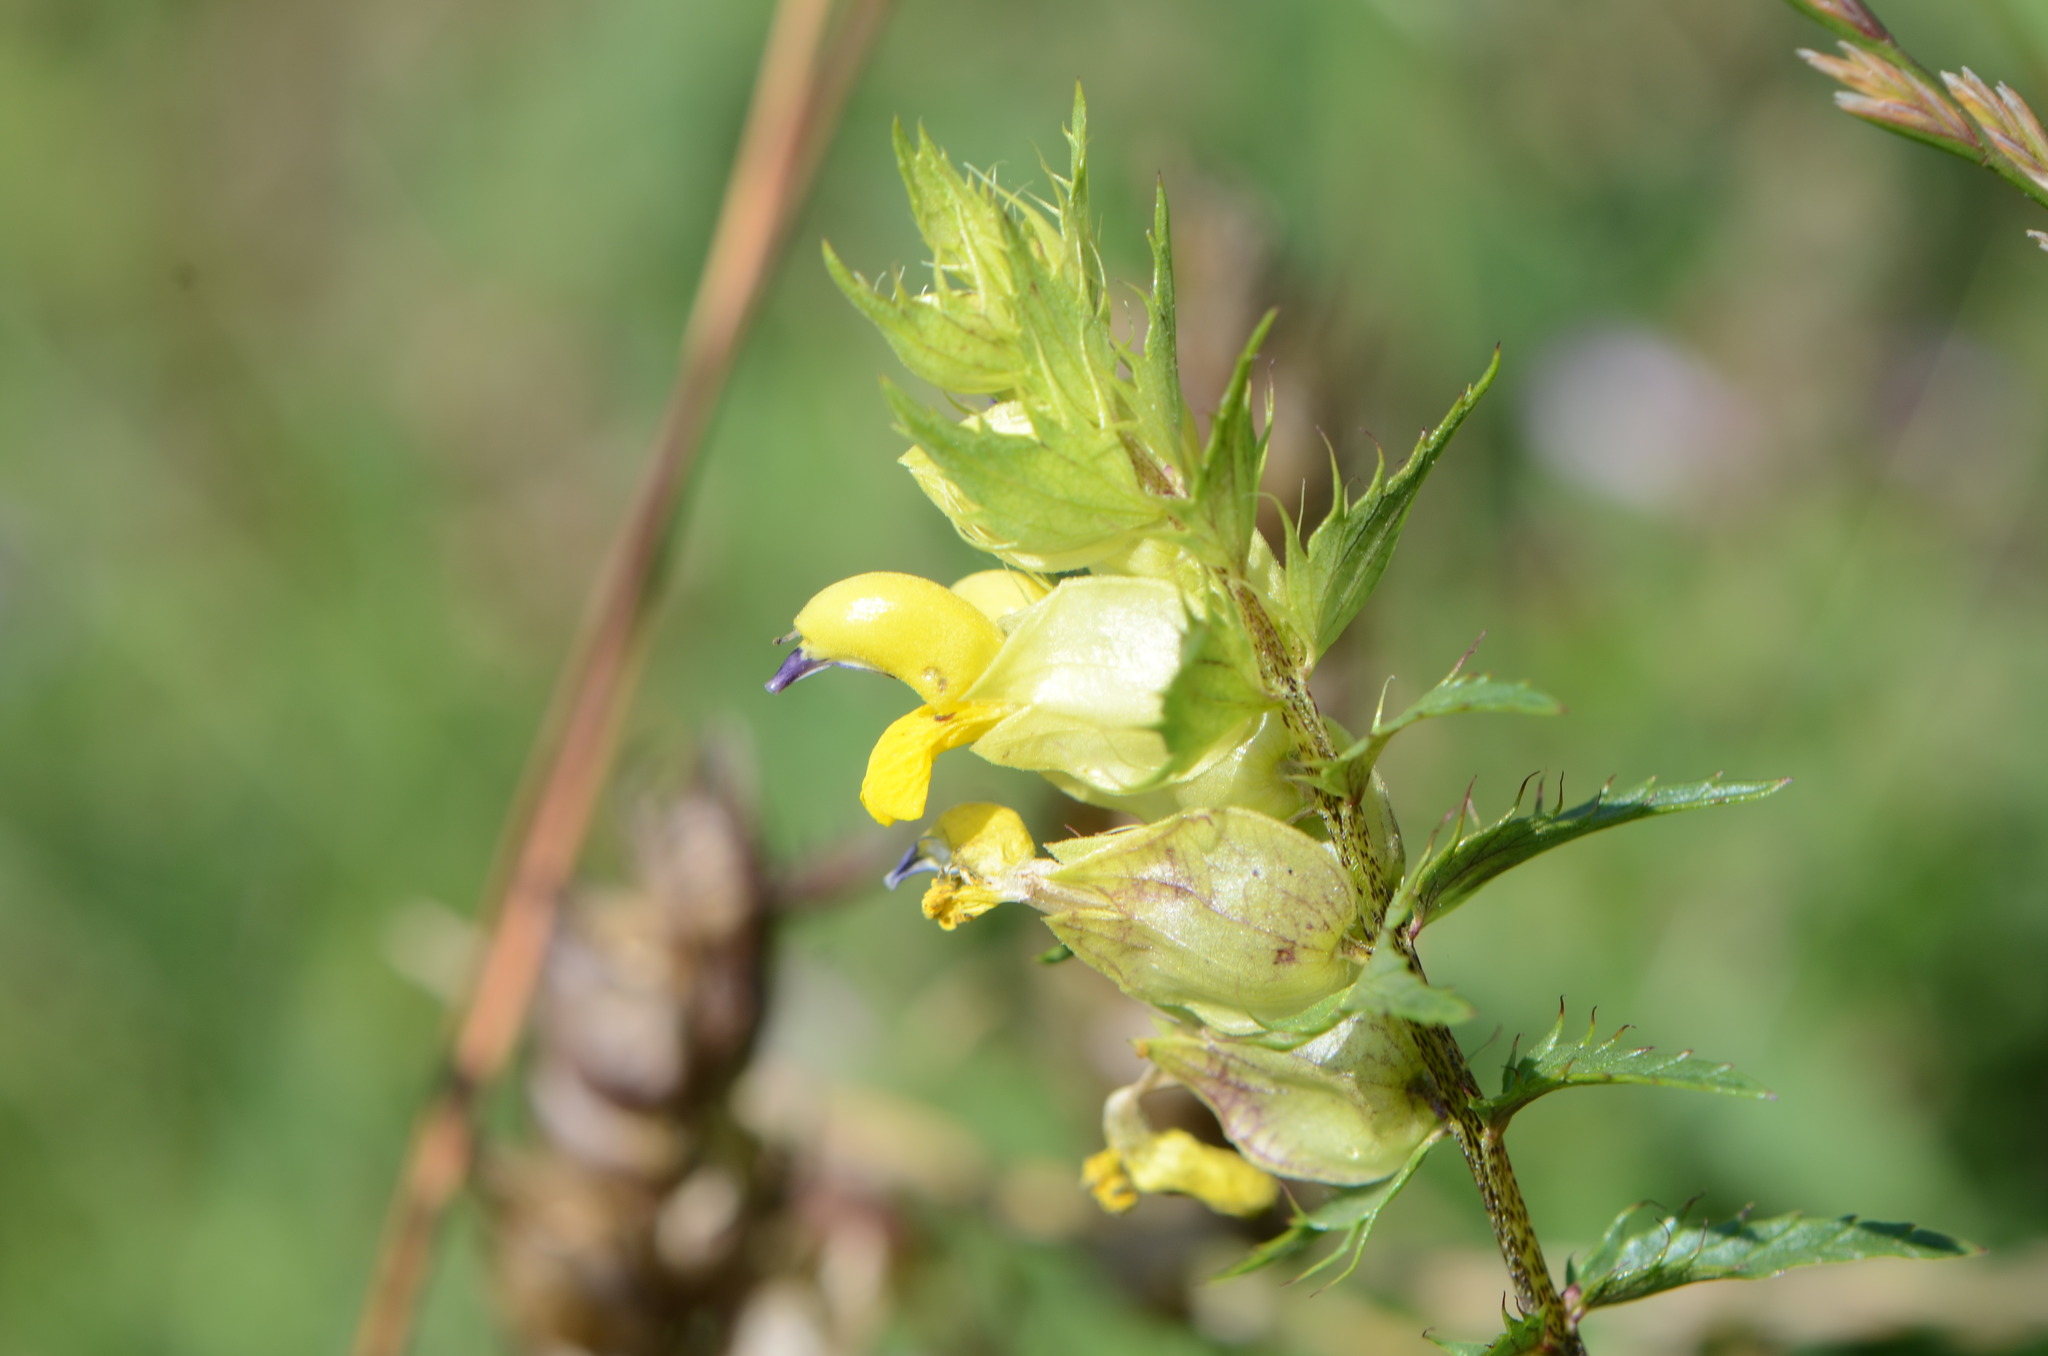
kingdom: Plantae
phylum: Tracheophyta
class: Magnoliopsida
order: Lamiales
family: Orobanchaceae
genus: Rhinanthus
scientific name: Rhinanthus glacialis
